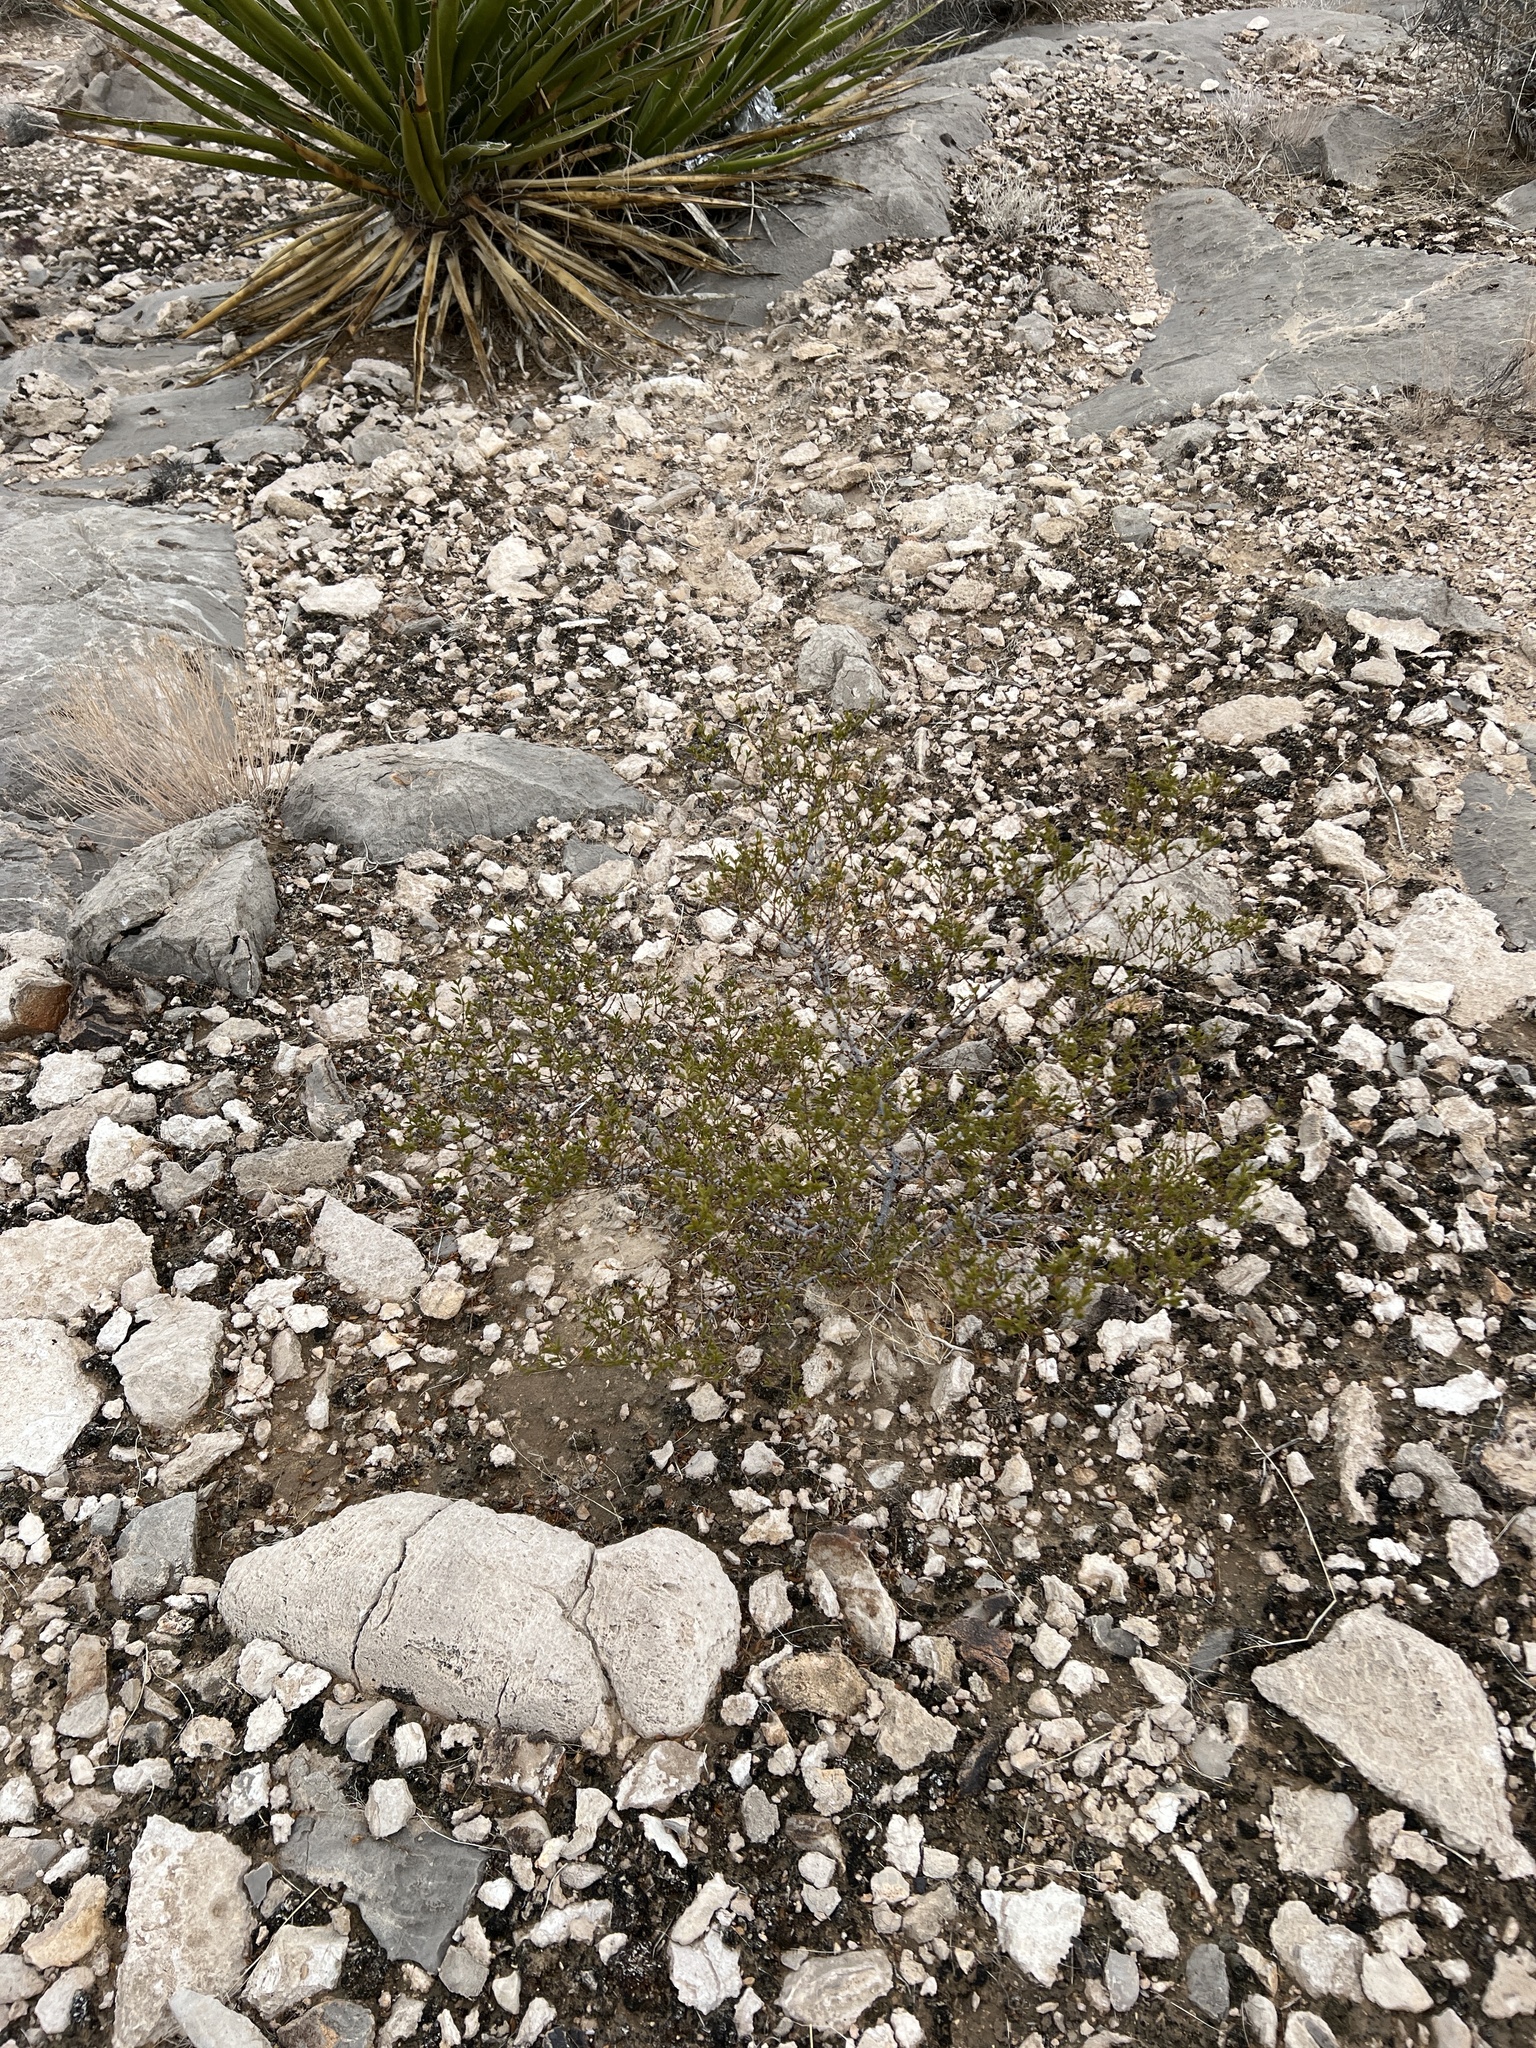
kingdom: Plantae
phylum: Tracheophyta
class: Magnoliopsida
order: Zygophyllales
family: Zygophyllaceae
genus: Larrea
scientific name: Larrea tridentata
